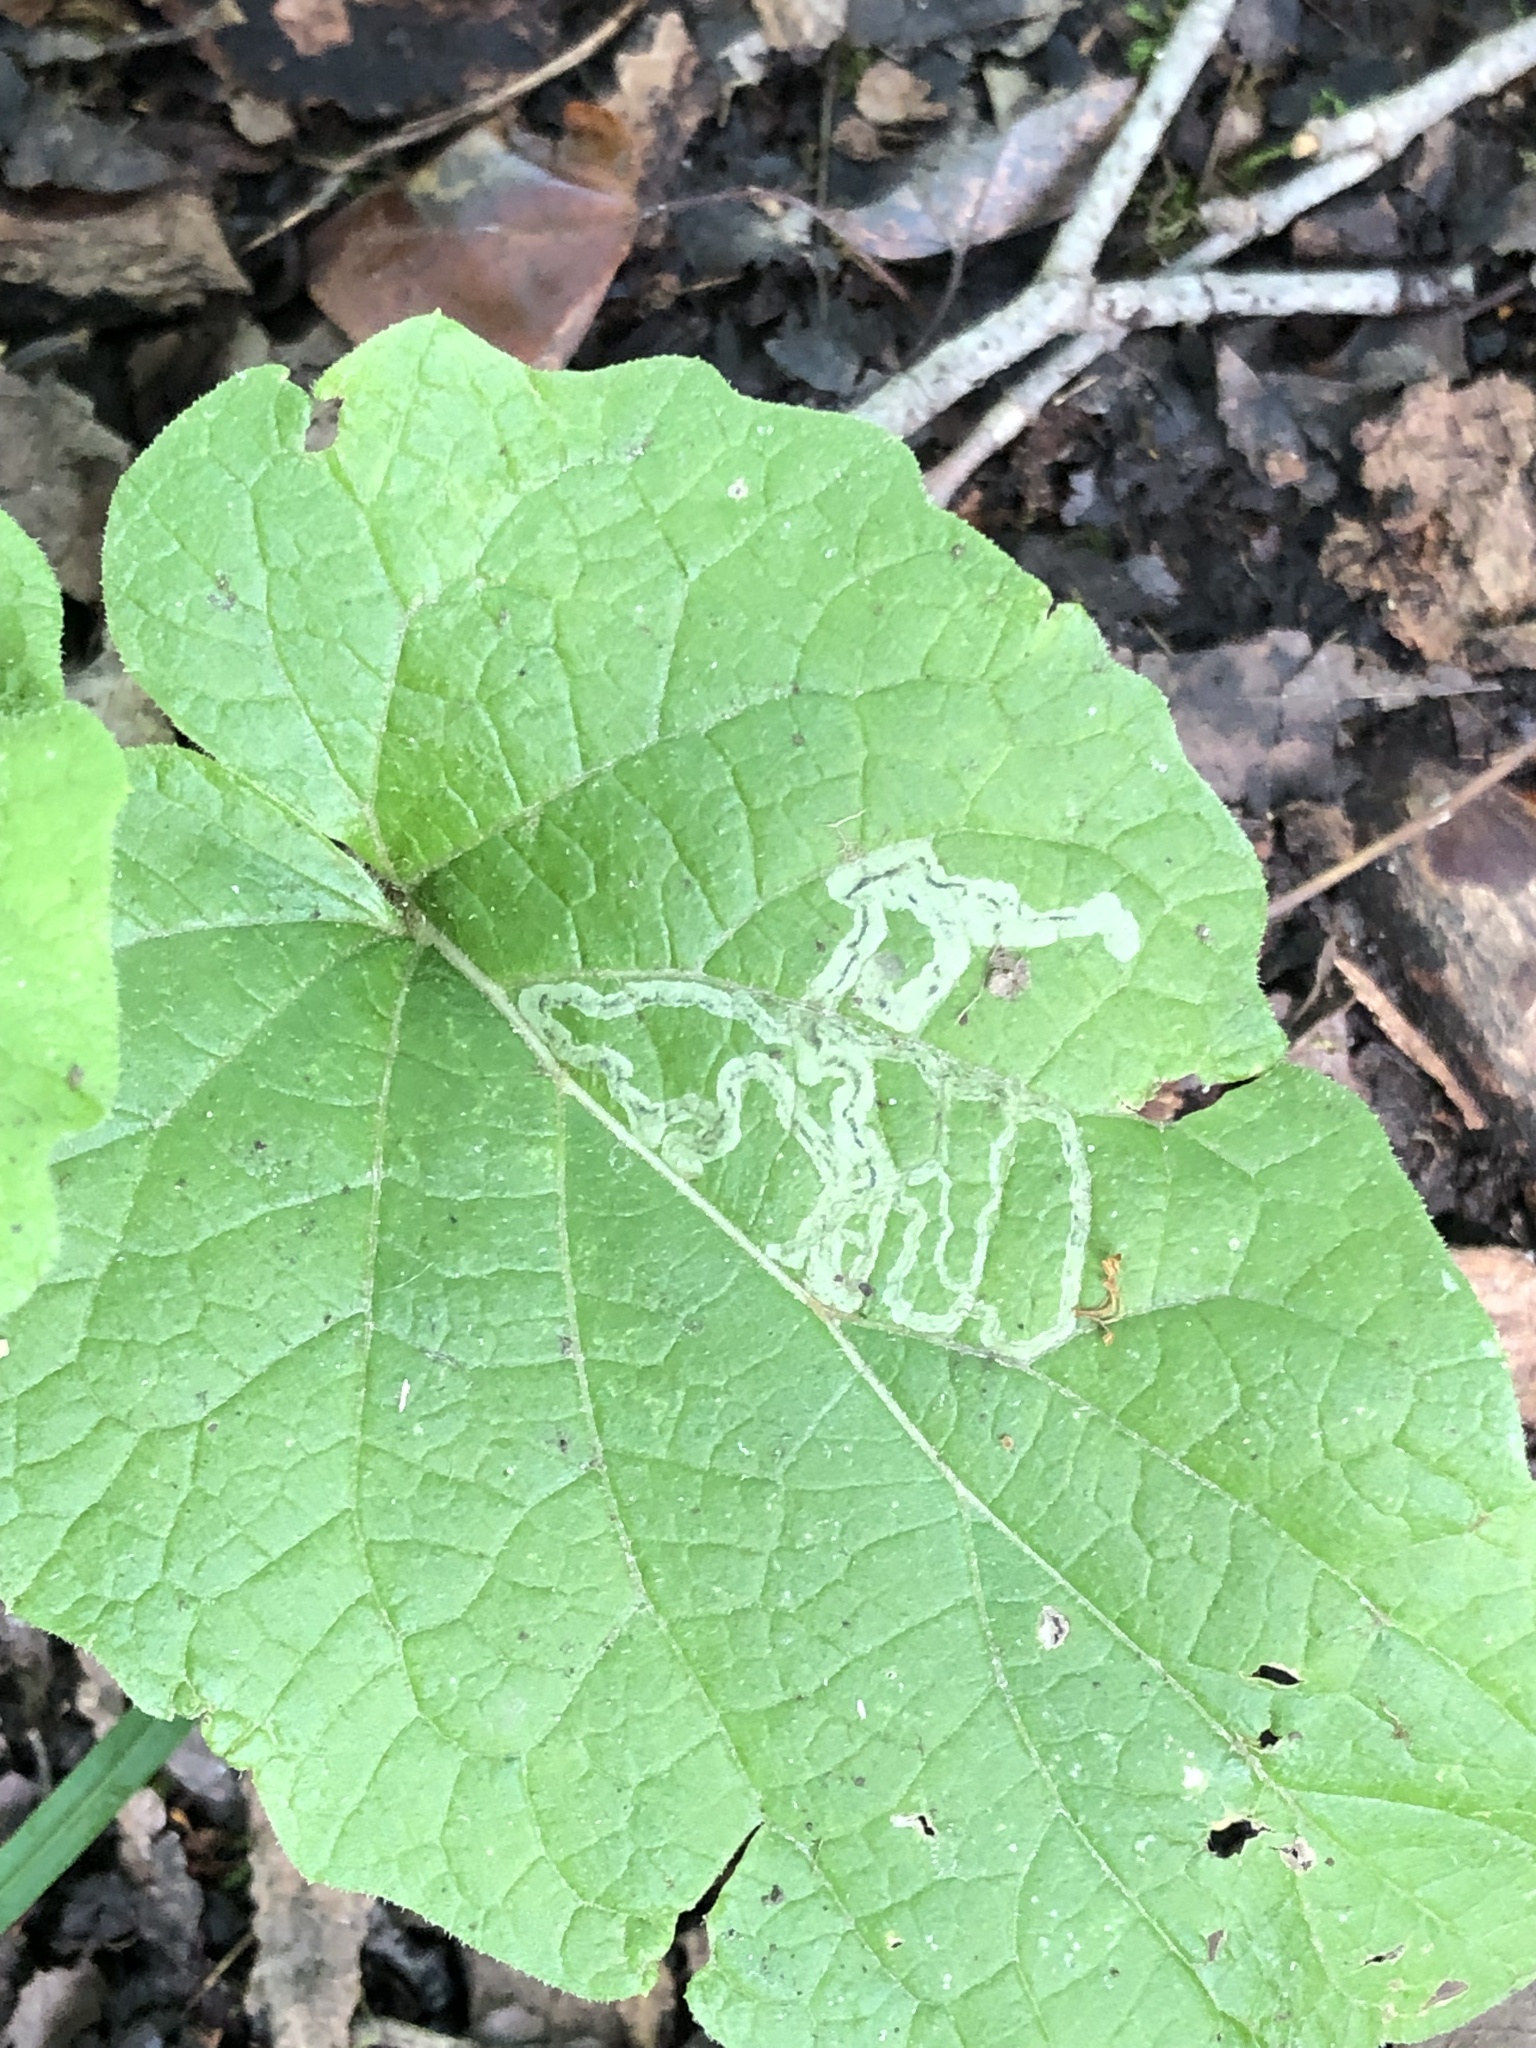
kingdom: Animalia
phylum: Arthropoda
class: Insecta
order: Diptera
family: Agromyzidae
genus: Liriomyza
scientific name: Liriomyza arctii
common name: Burdock leafminer
